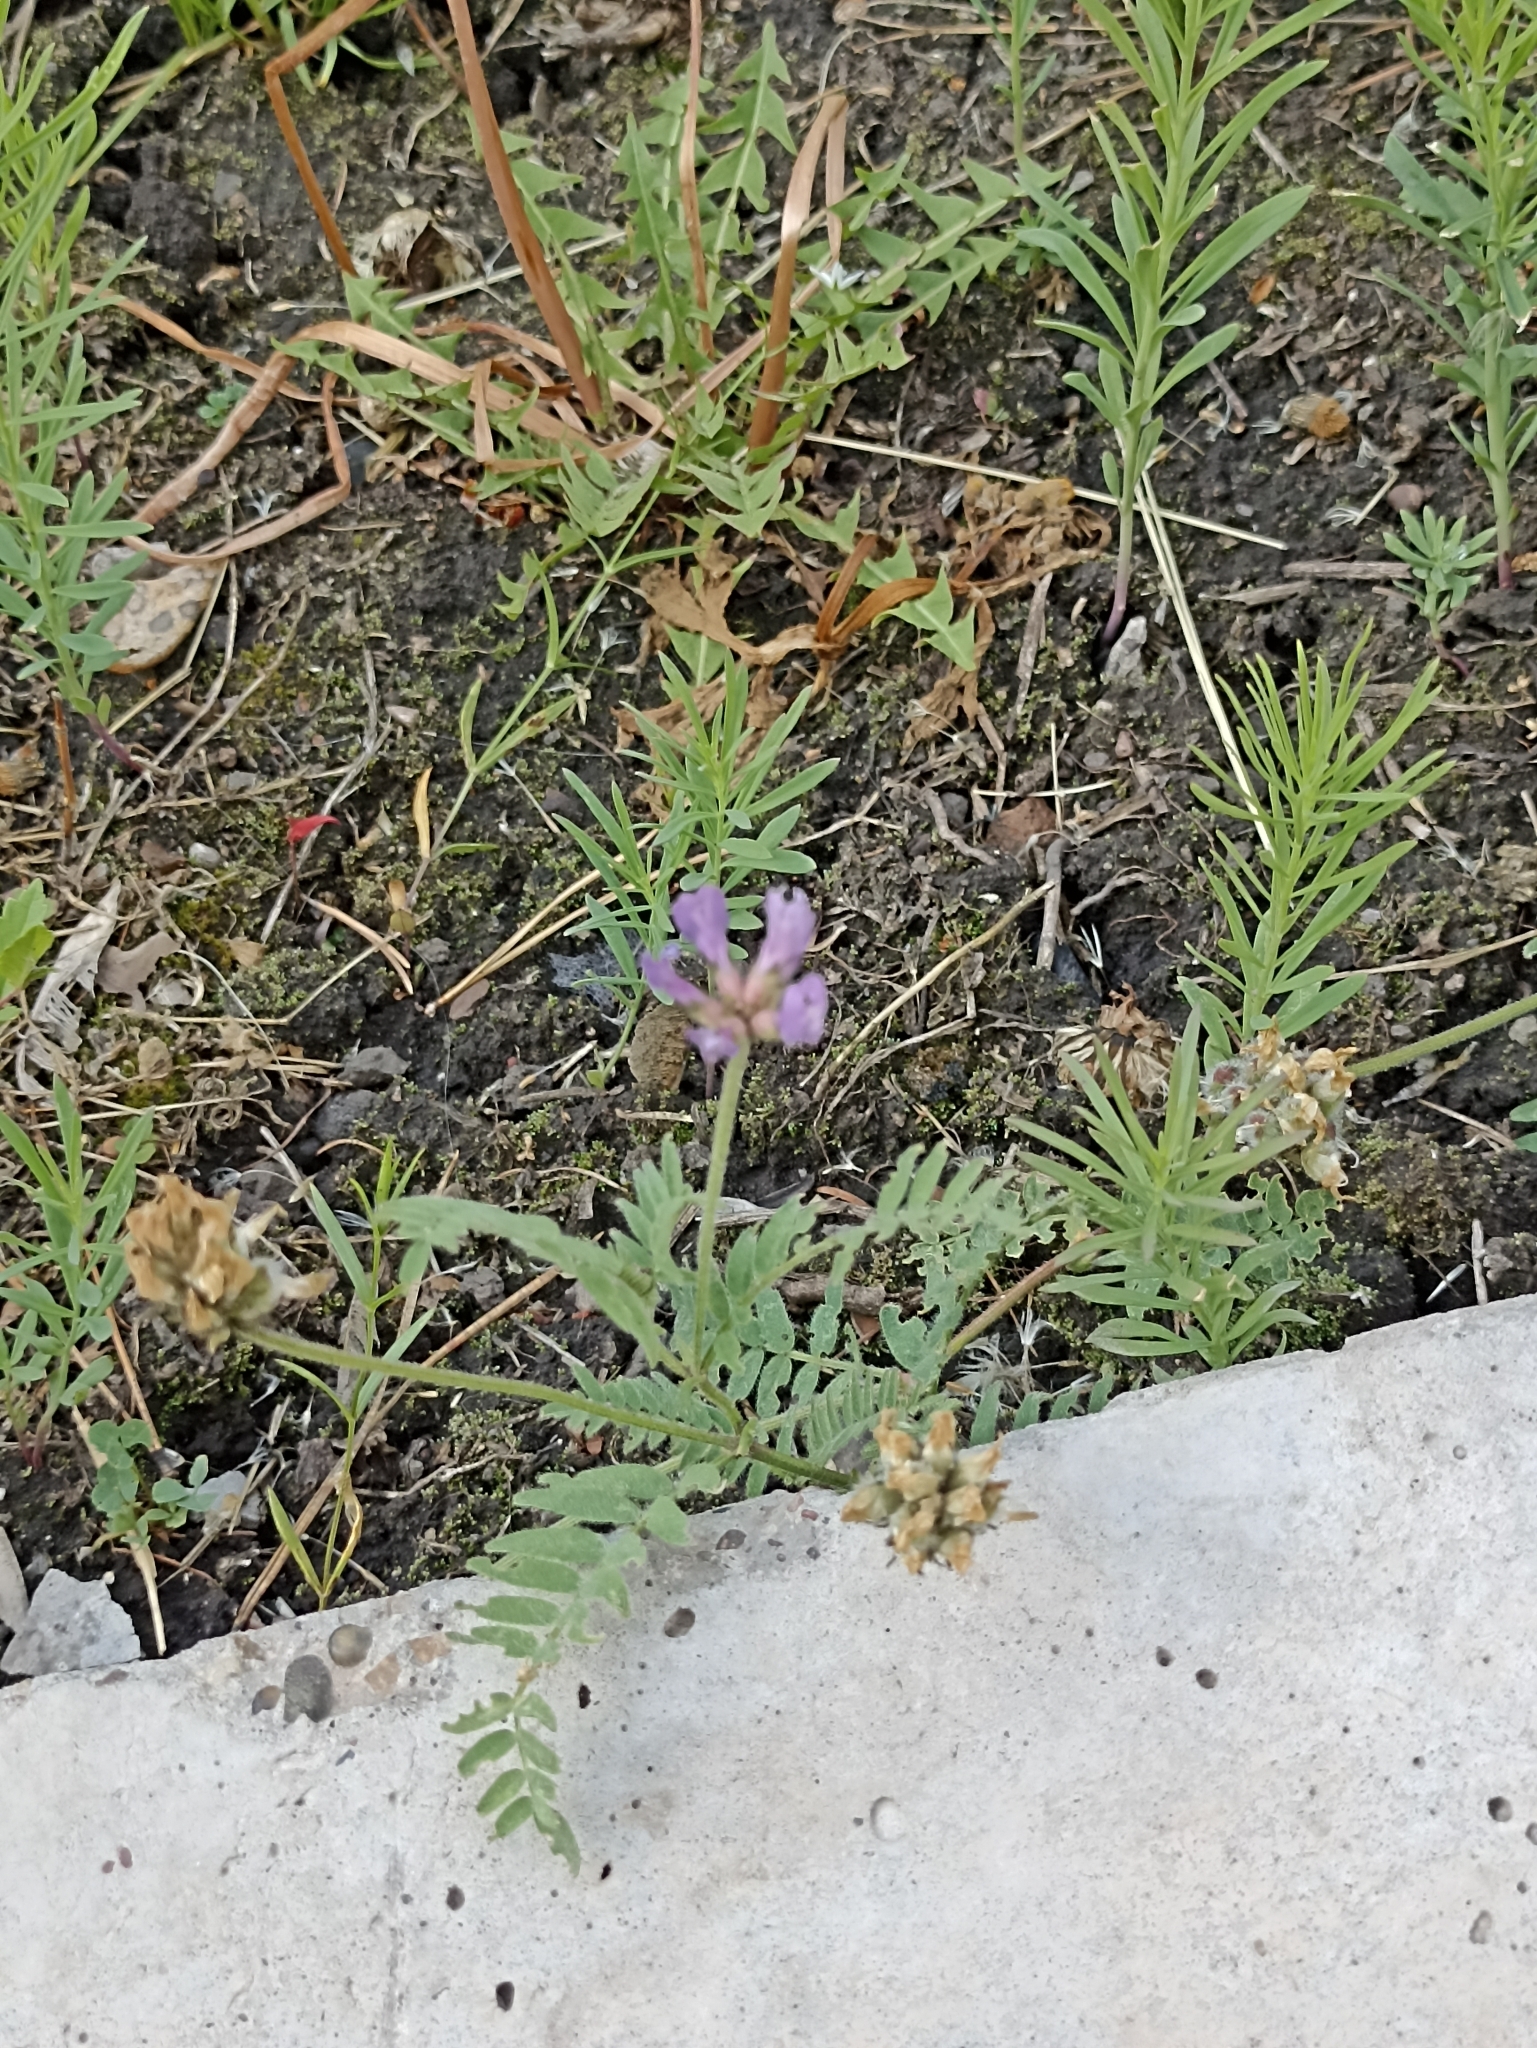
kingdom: Plantae
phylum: Tracheophyta
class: Magnoliopsida
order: Fabales
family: Fabaceae
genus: Astragalus
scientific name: Astragalus danicus
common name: Purple milk-vetch
